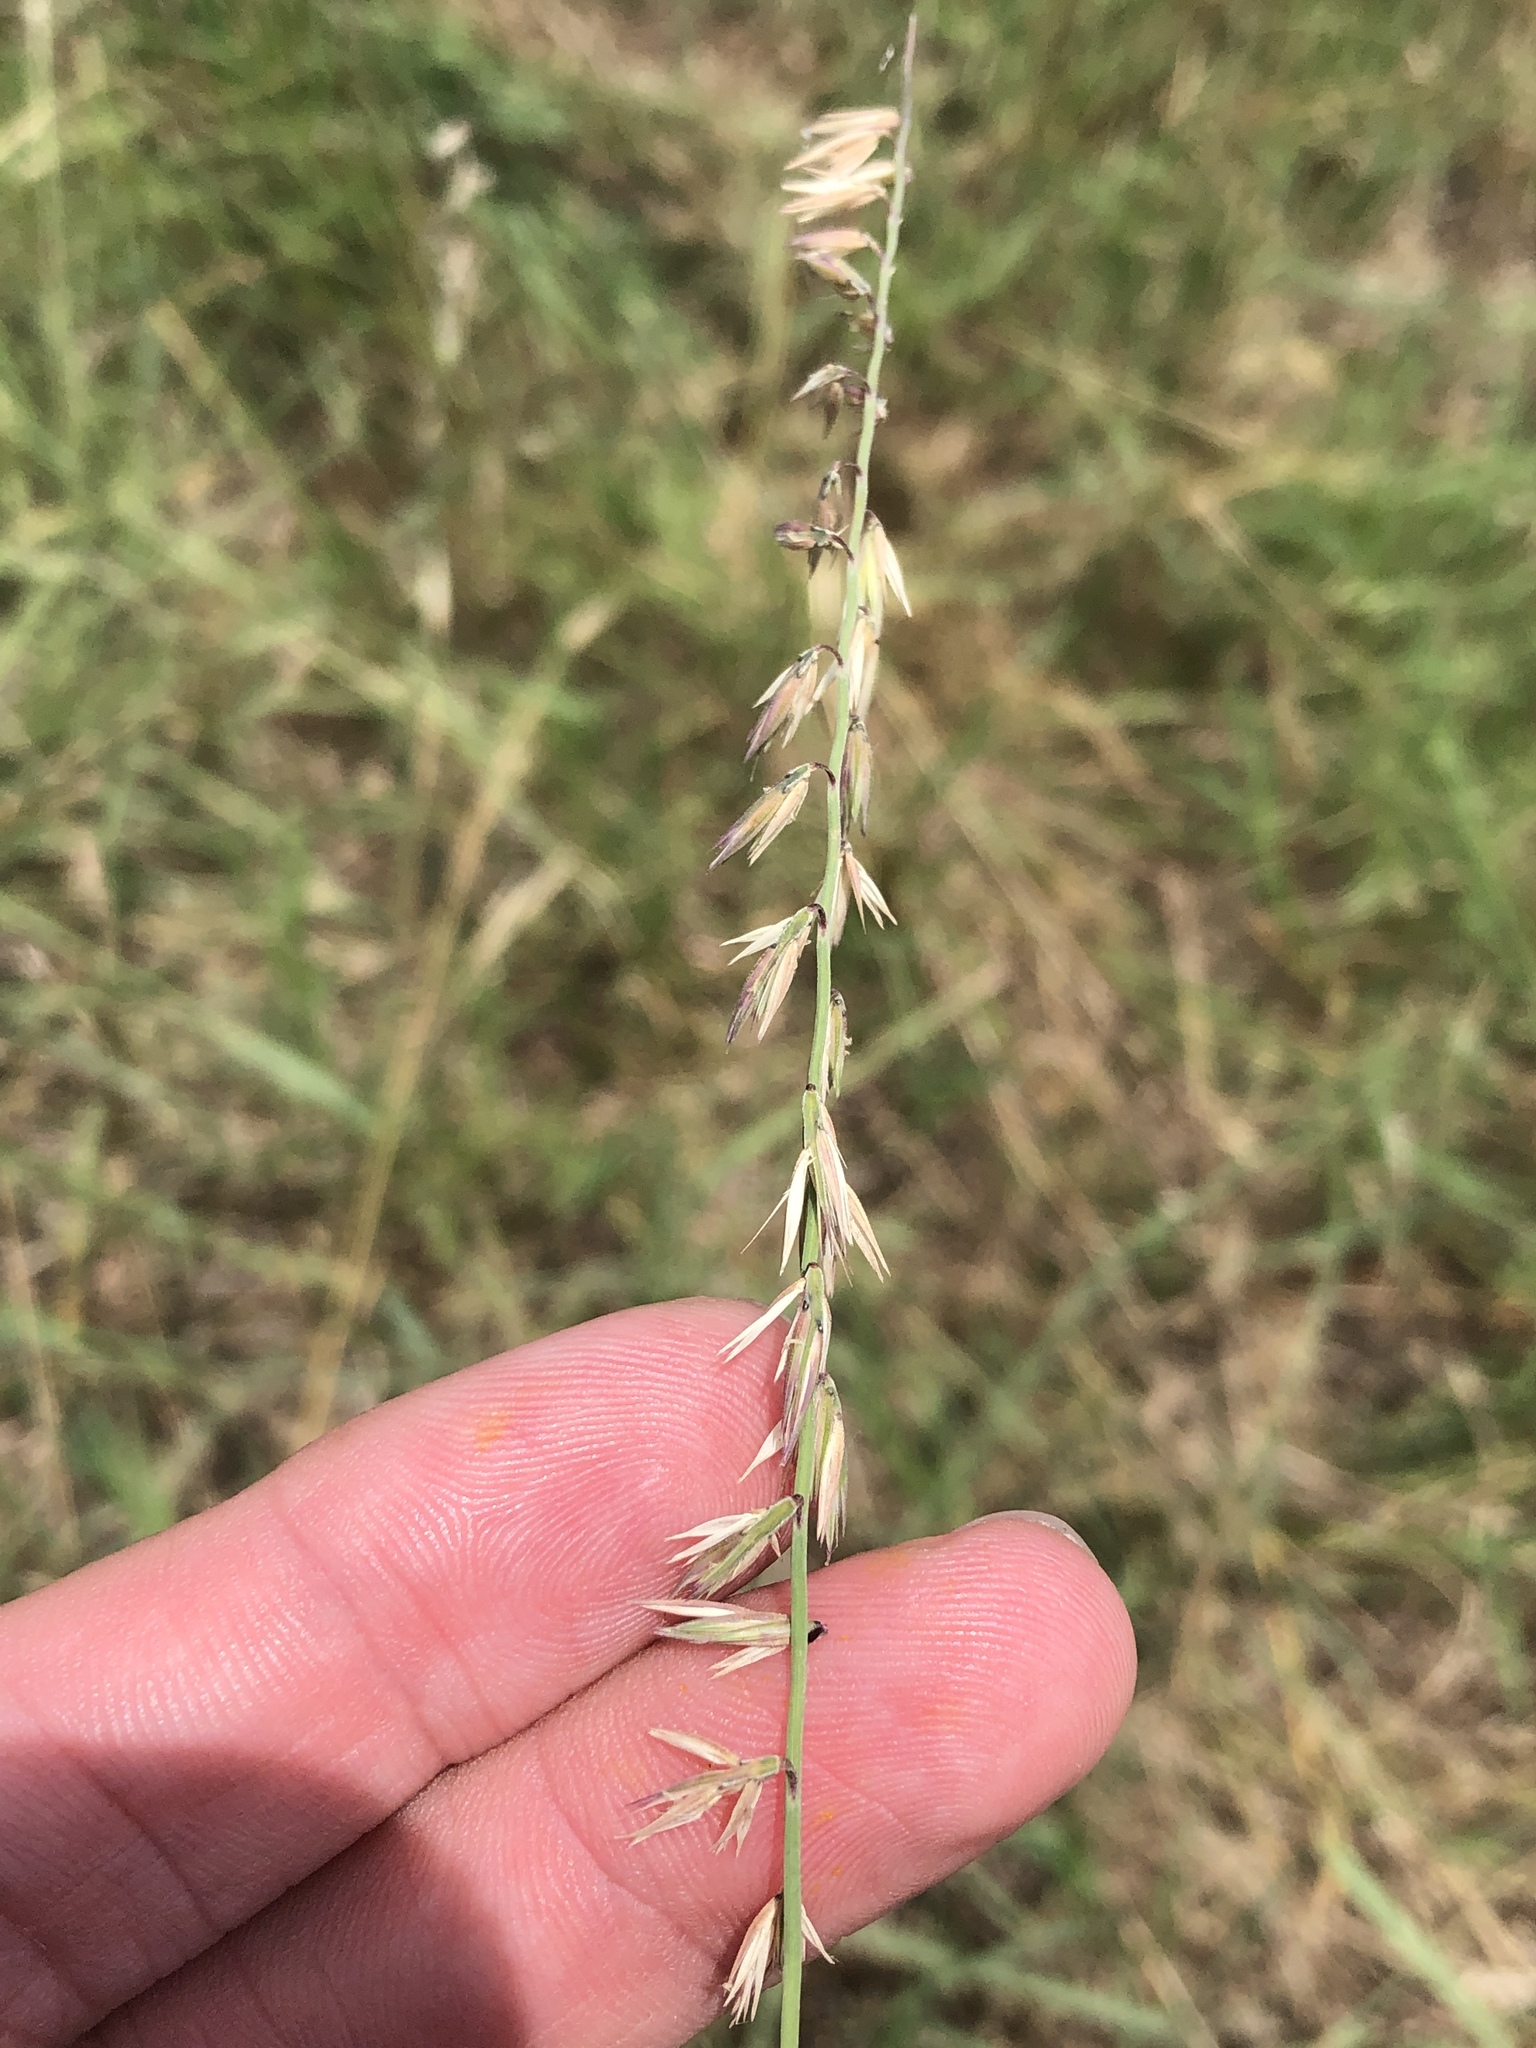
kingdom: Plantae
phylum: Tracheophyta
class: Liliopsida
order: Poales
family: Poaceae
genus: Bouteloua
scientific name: Bouteloua curtipendula
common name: Side-oats grama
